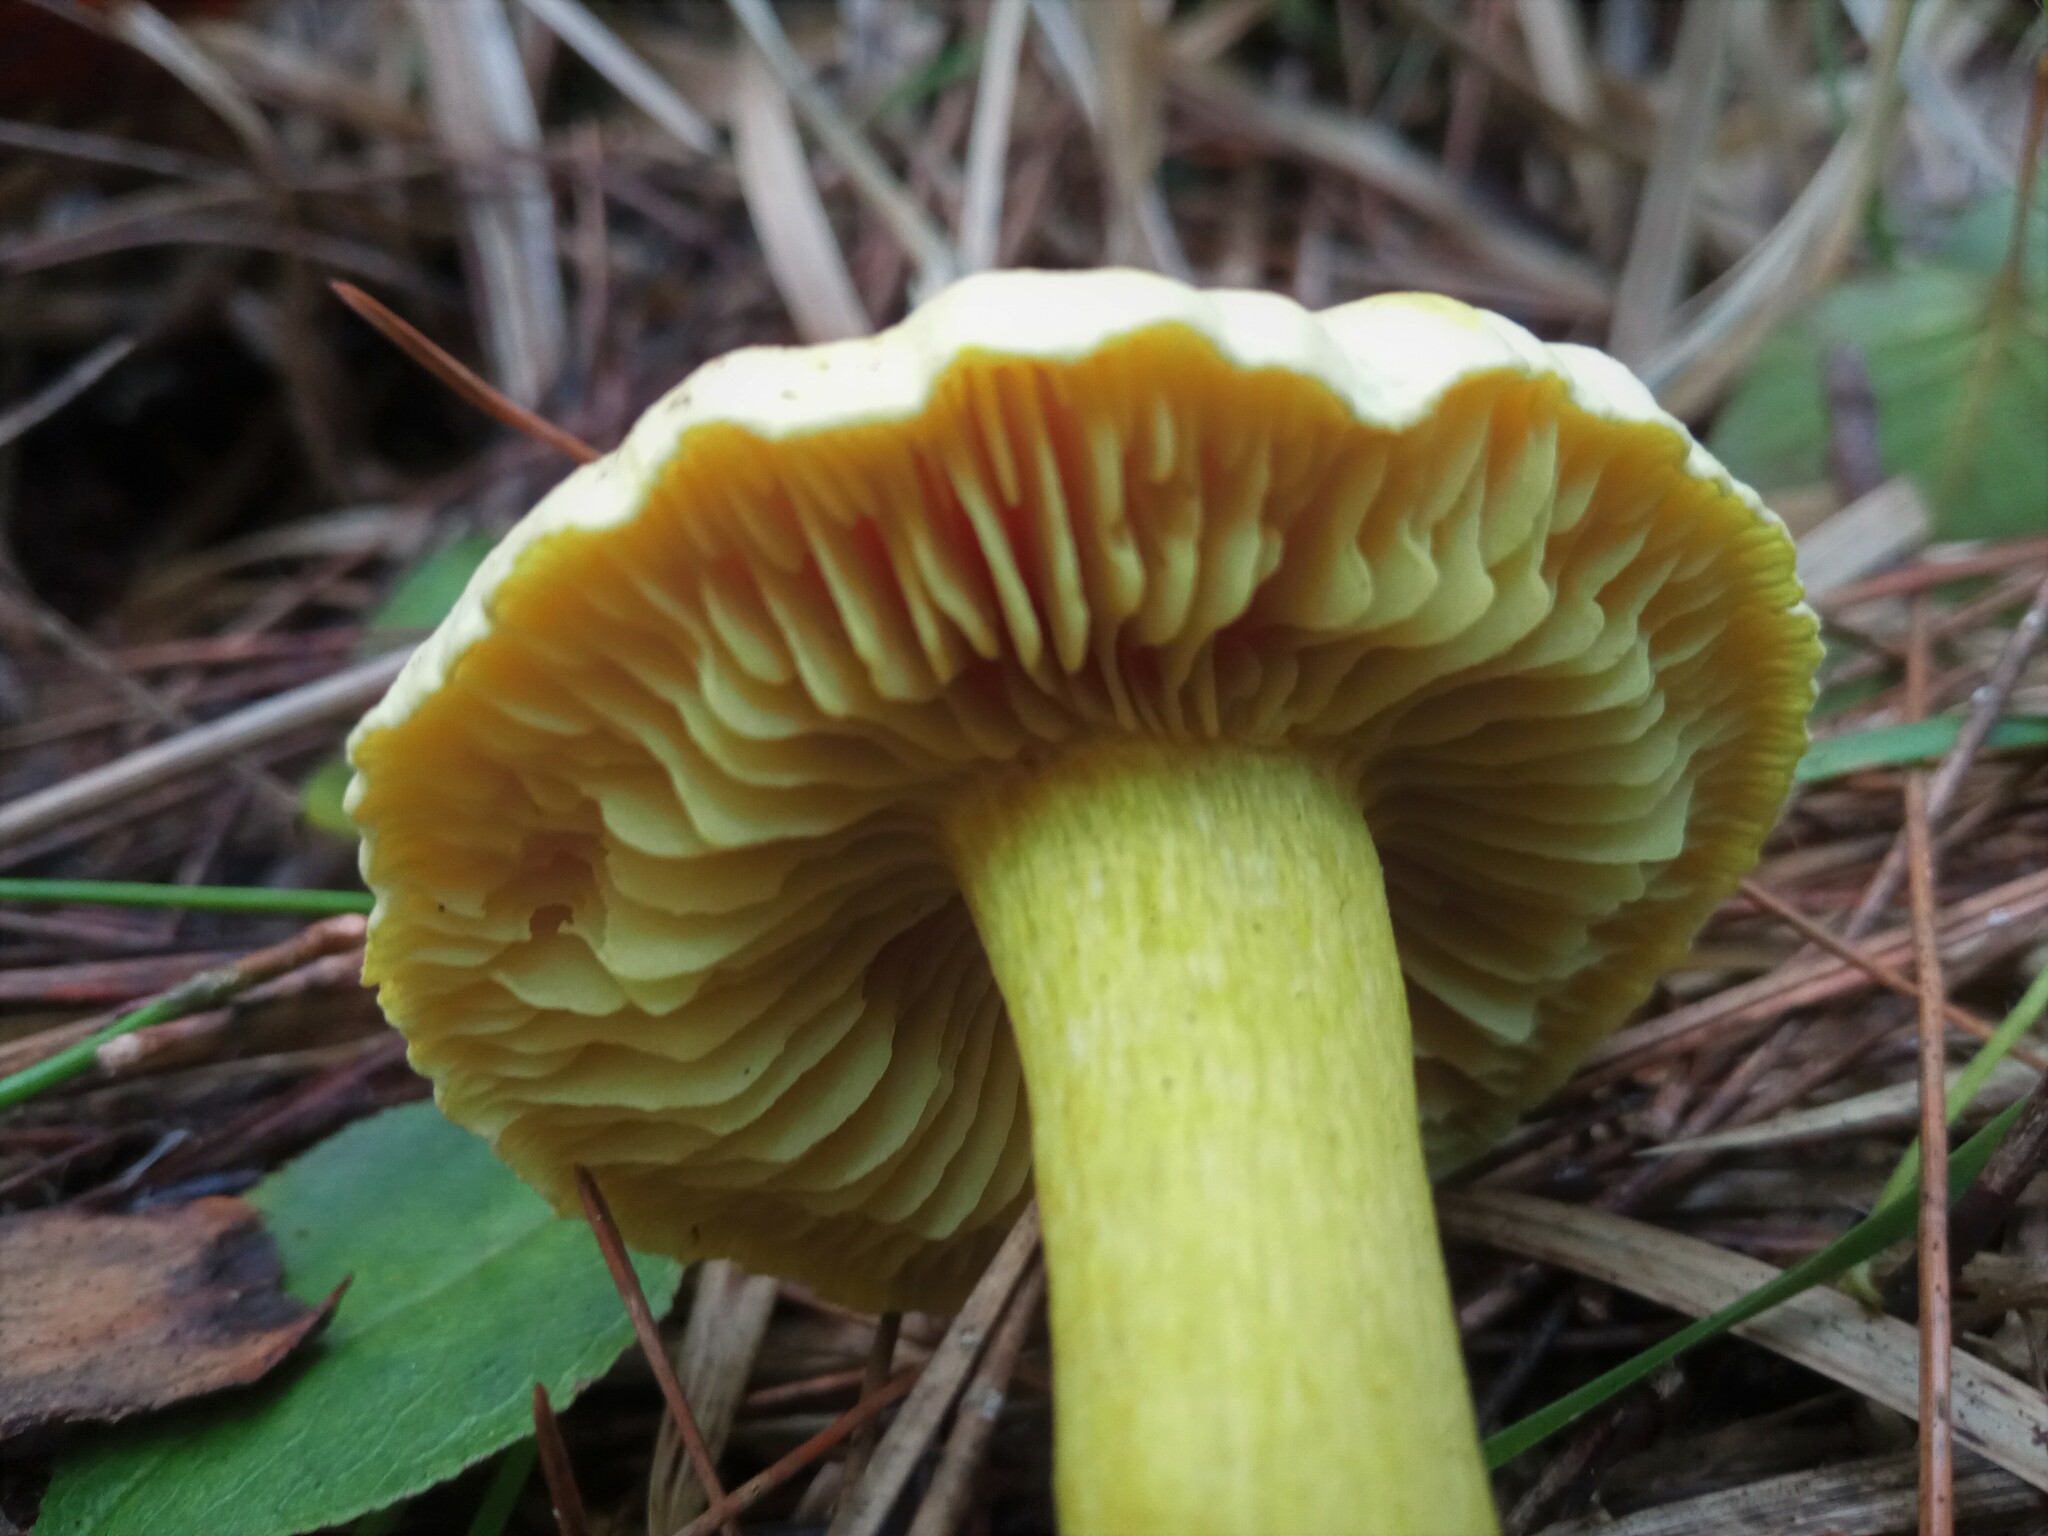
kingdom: Fungi
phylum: Basidiomycota
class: Agaricomycetes
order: Agaricales
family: Tricholomataceae
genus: Tricholoma
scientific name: Tricholoma sulphureum
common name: Stinky knight
